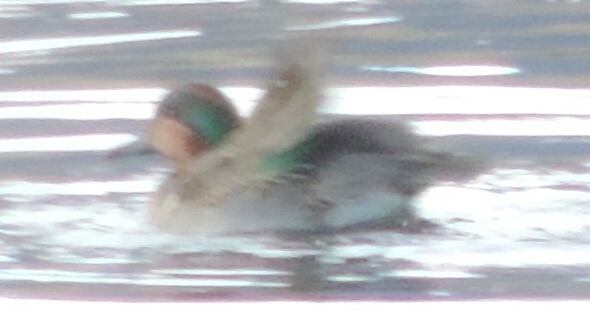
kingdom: Animalia
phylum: Chordata
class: Aves
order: Anseriformes
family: Anatidae
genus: Anas
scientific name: Anas crecca
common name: Eurasian teal
